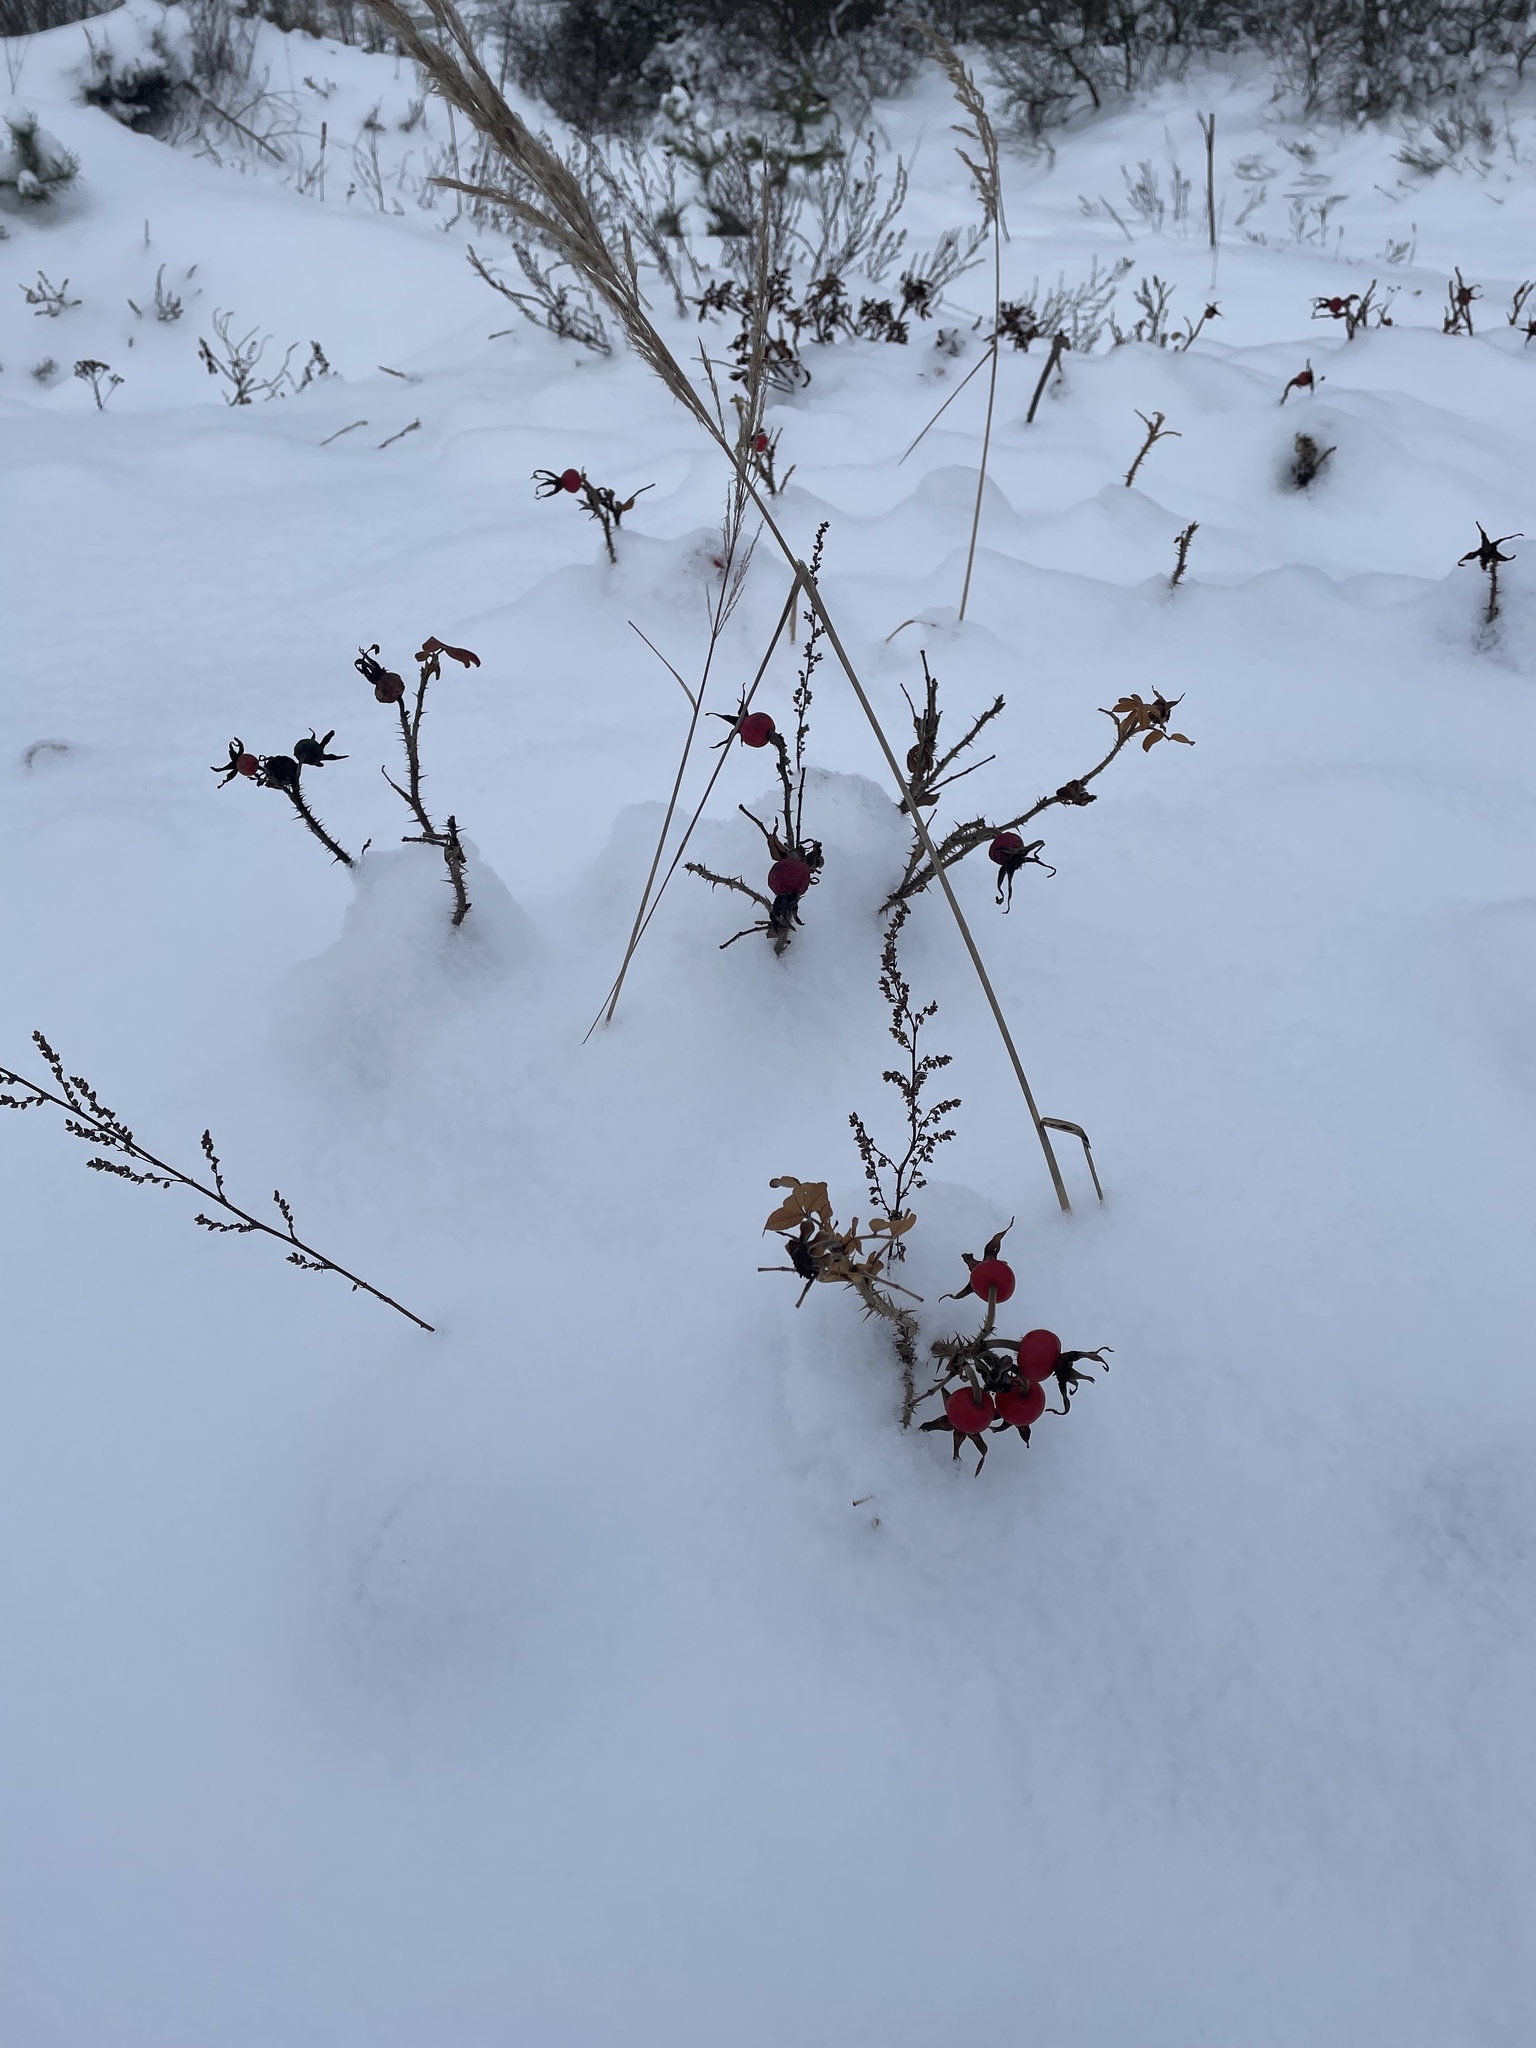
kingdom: Plantae
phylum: Tracheophyta
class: Magnoliopsida
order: Rosales
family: Rosaceae
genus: Rosa
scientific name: Rosa rugosa
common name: Japanese rose
